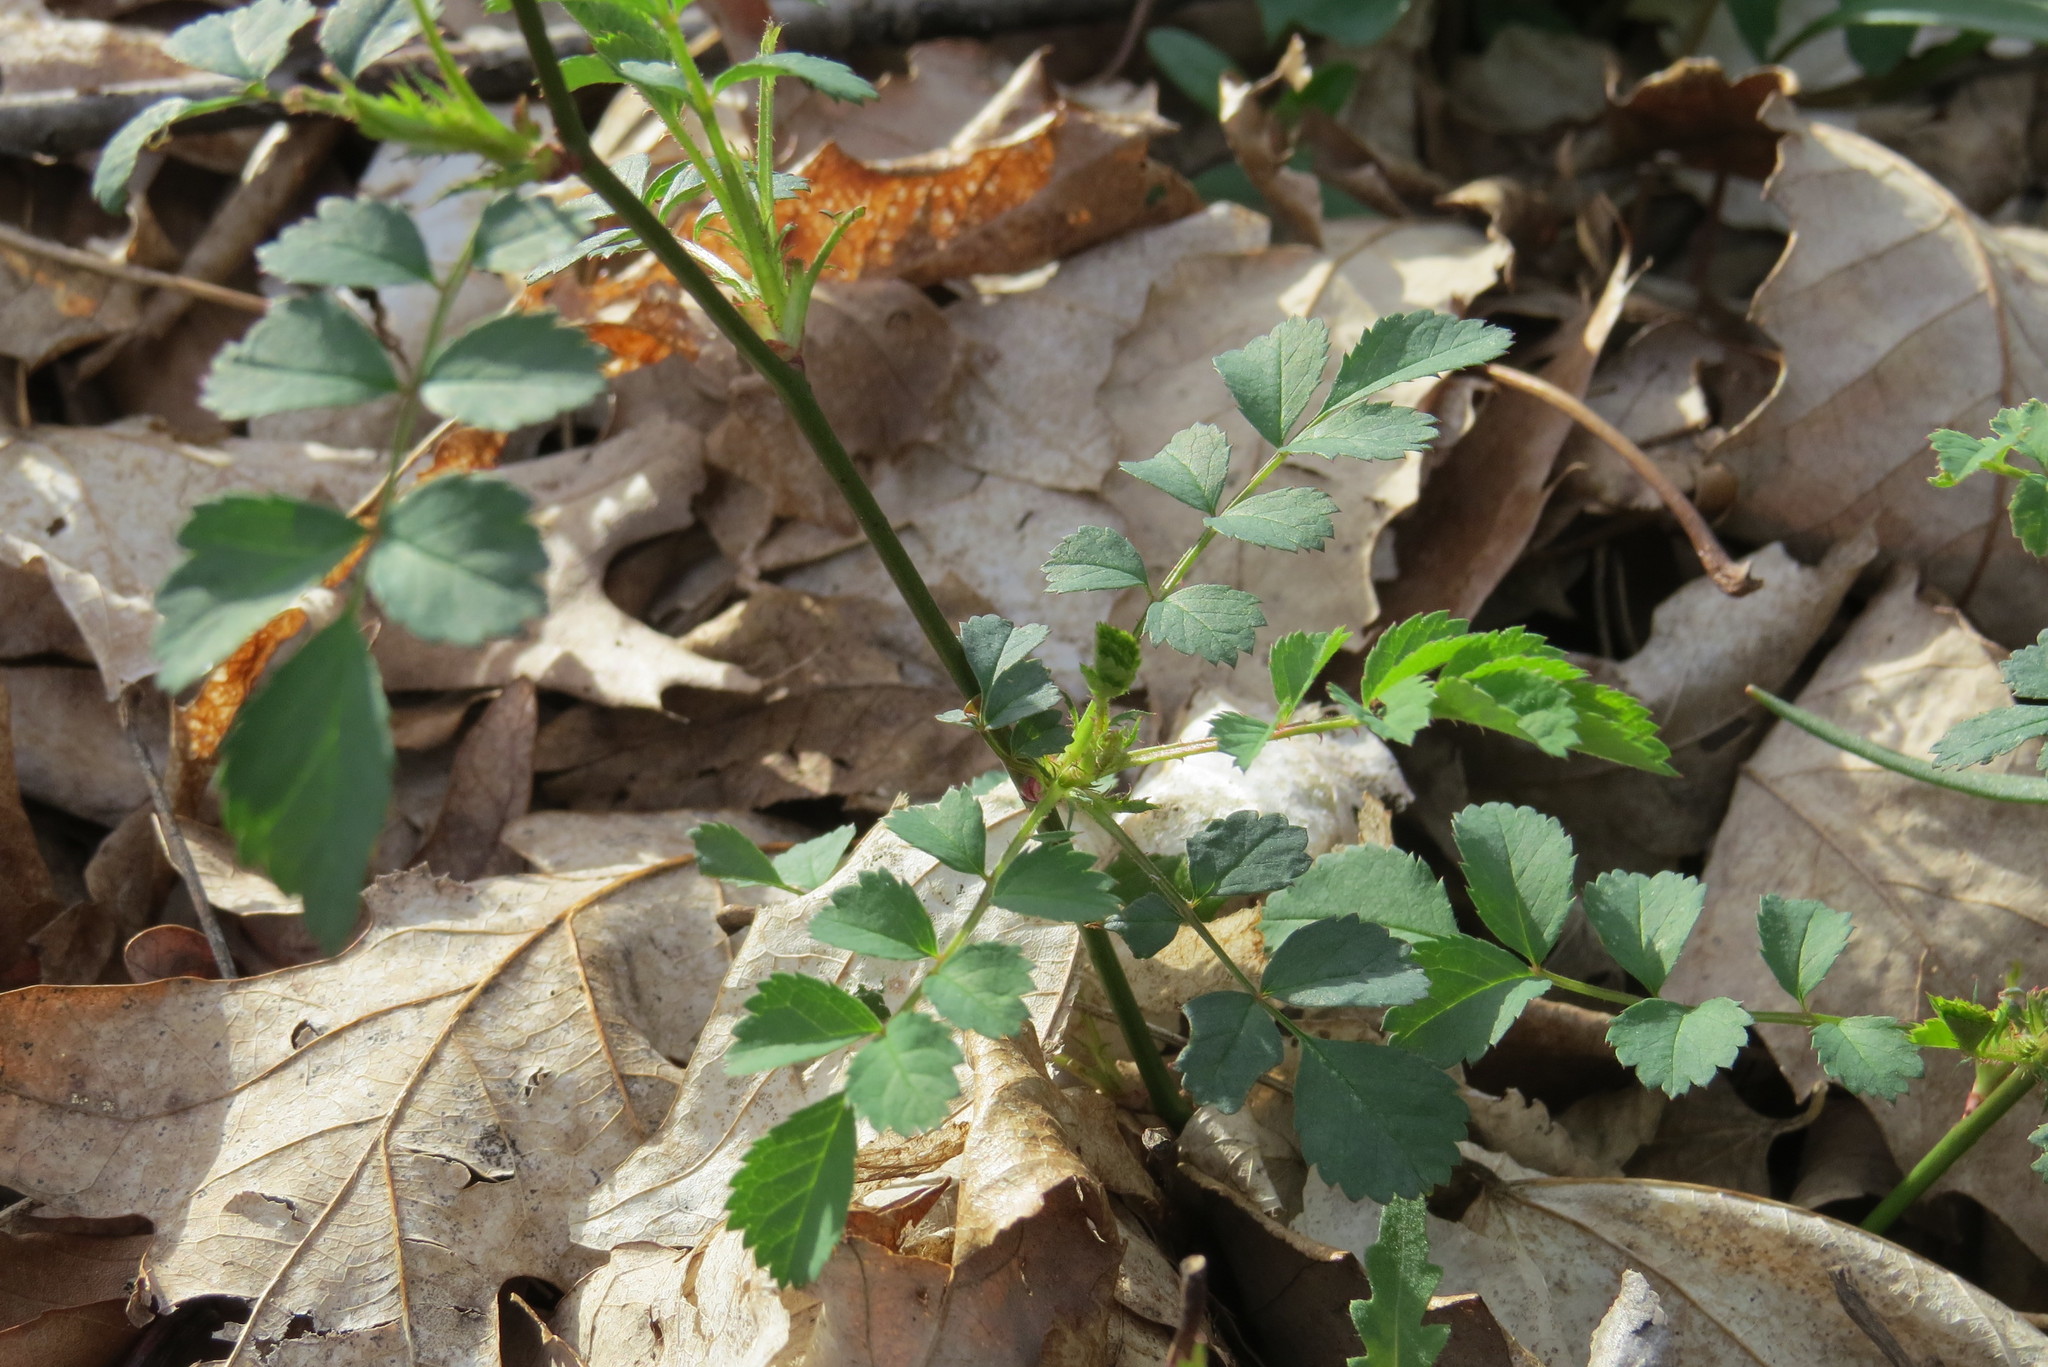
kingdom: Plantae
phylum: Tracheophyta
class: Magnoliopsida
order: Rosales
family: Rosaceae
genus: Rosa
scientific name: Rosa multiflora
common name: Multiflora rose
